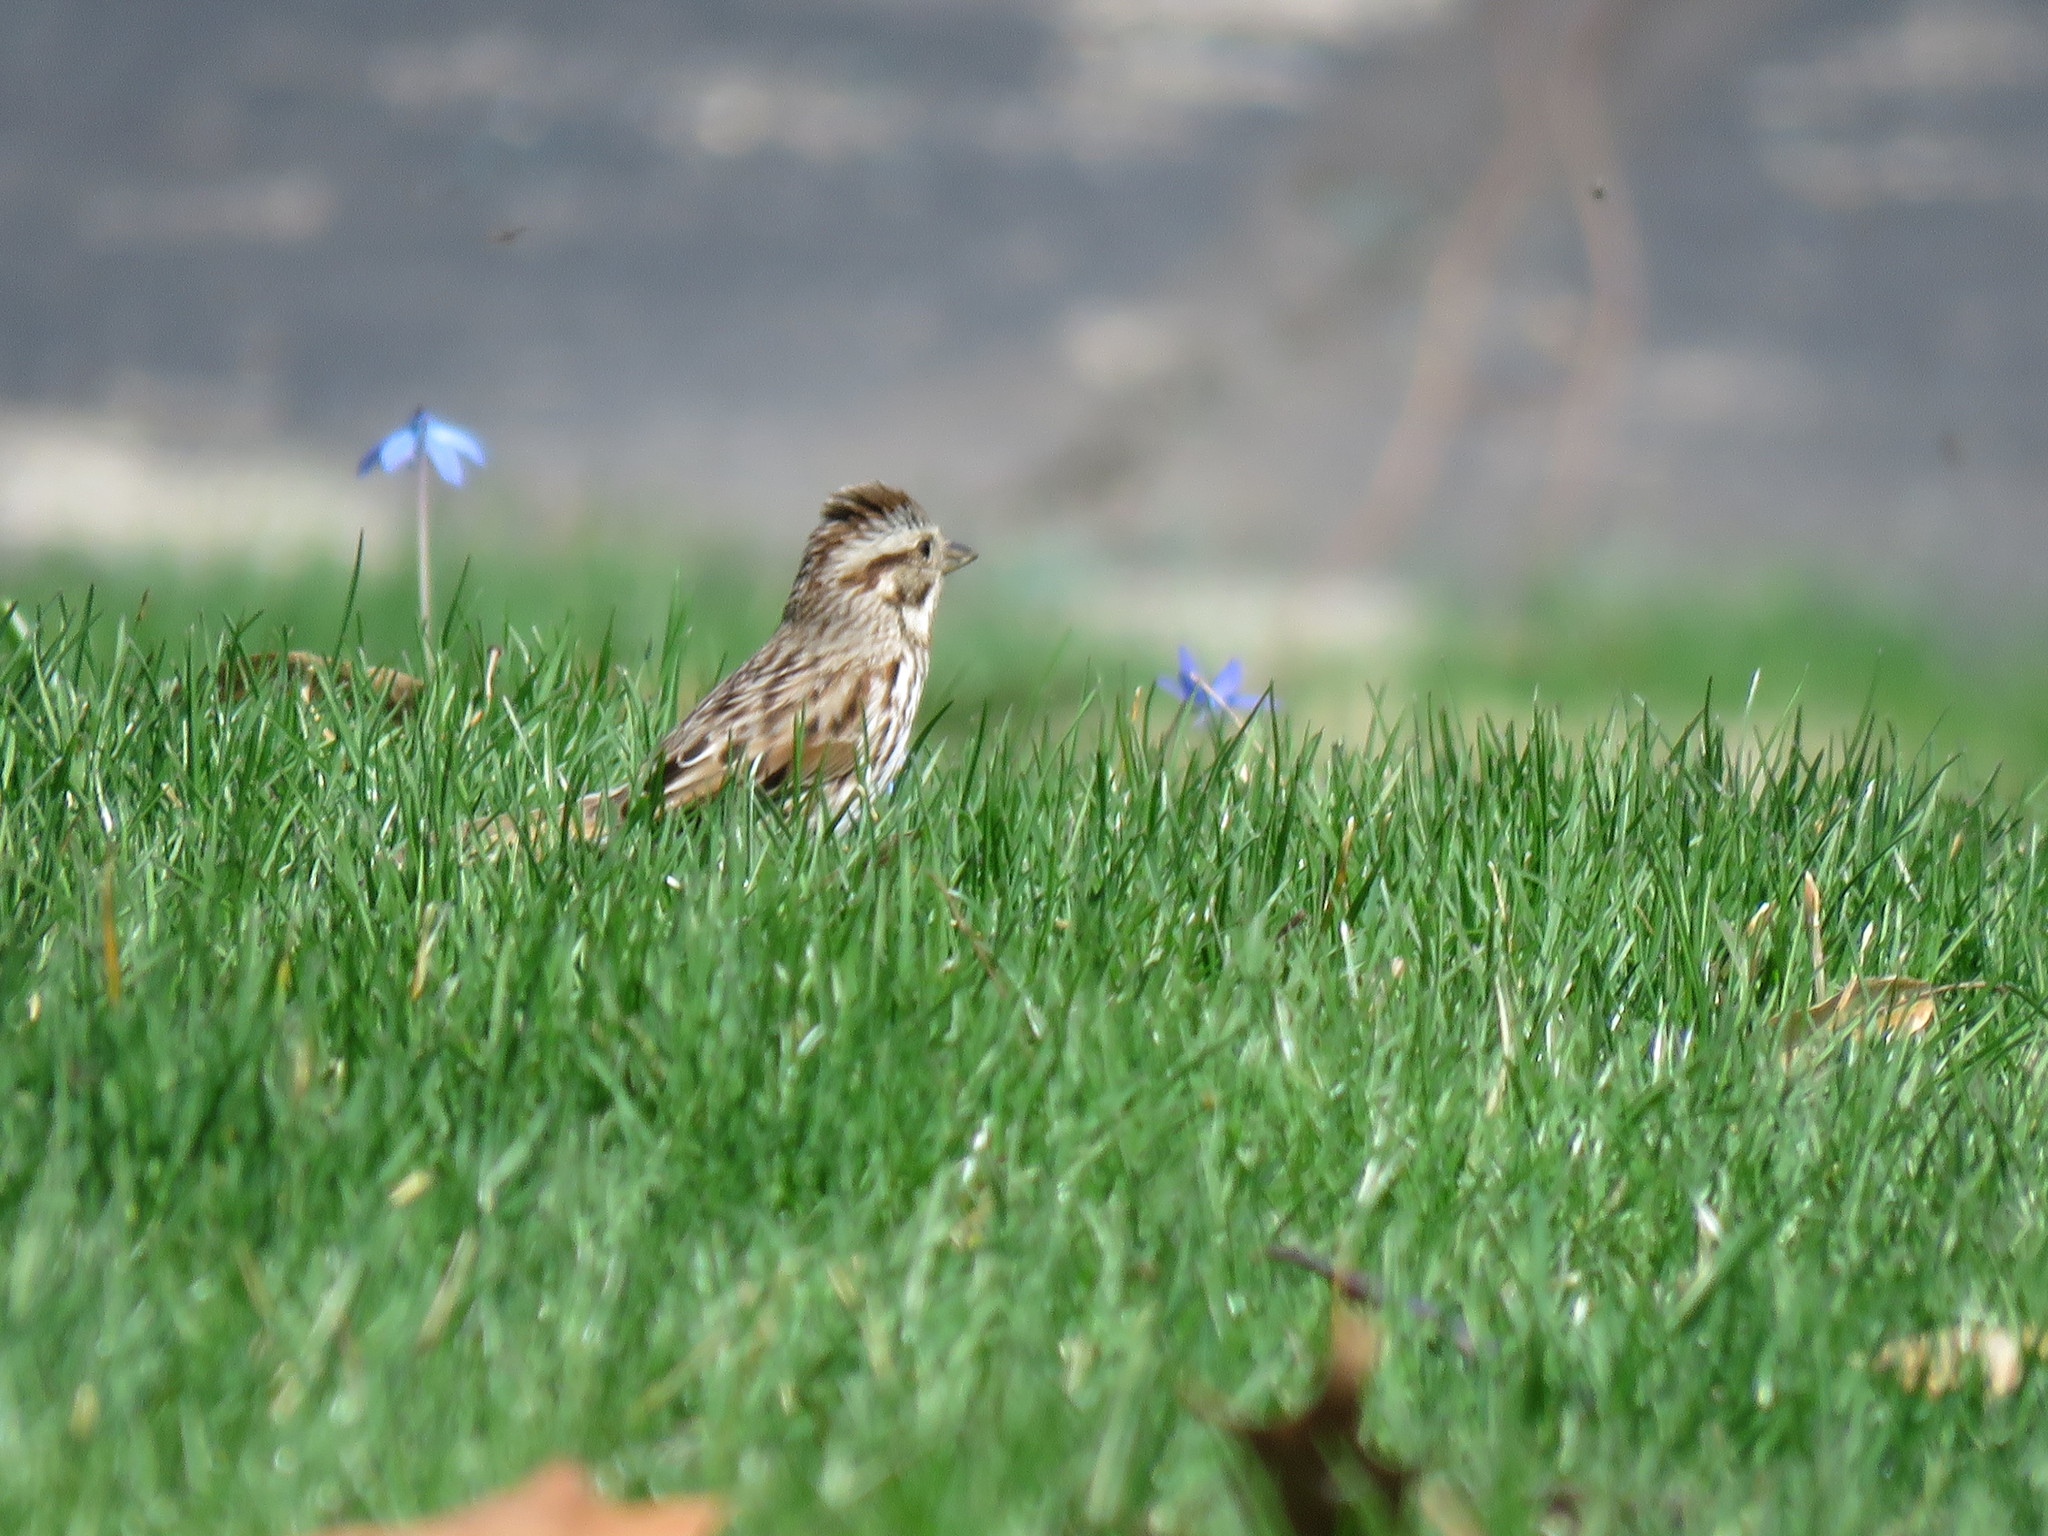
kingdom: Animalia
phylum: Chordata
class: Aves
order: Passeriformes
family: Passerellidae
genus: Melospiza
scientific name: Melospiza melodia
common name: Song sparrow
